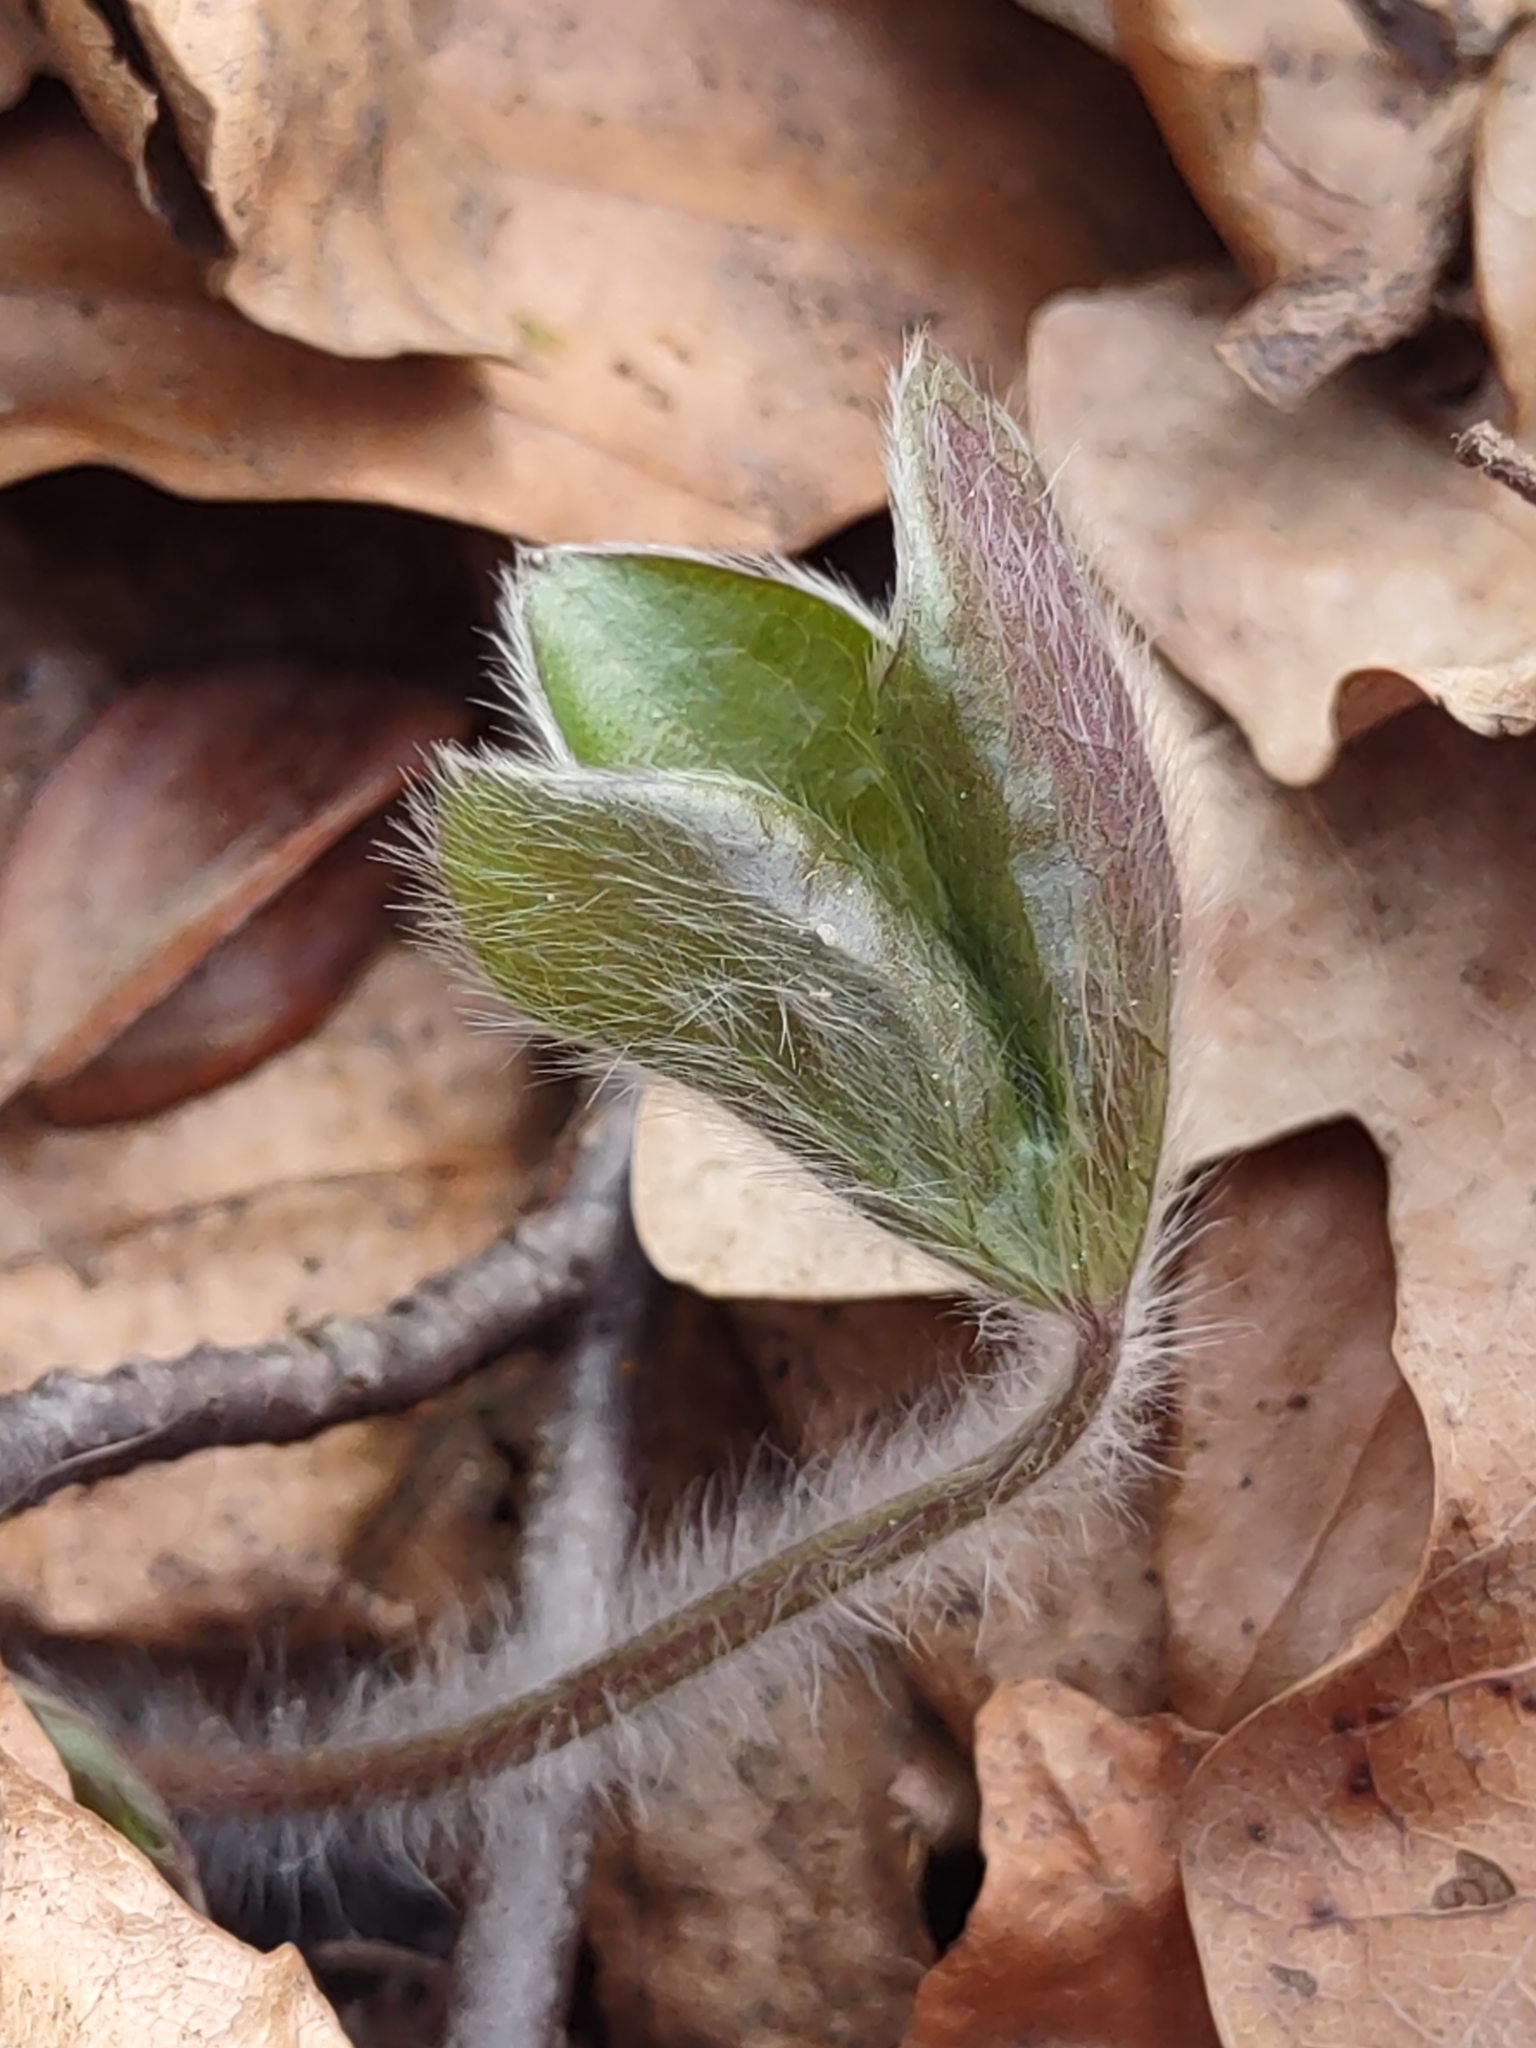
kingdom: Plantae
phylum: Tracheophyta
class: Magnoliopsida
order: Ranunculales
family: Ranunculaceae
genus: Hepatica
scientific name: Hepatica nobilis
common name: Liverleaf
